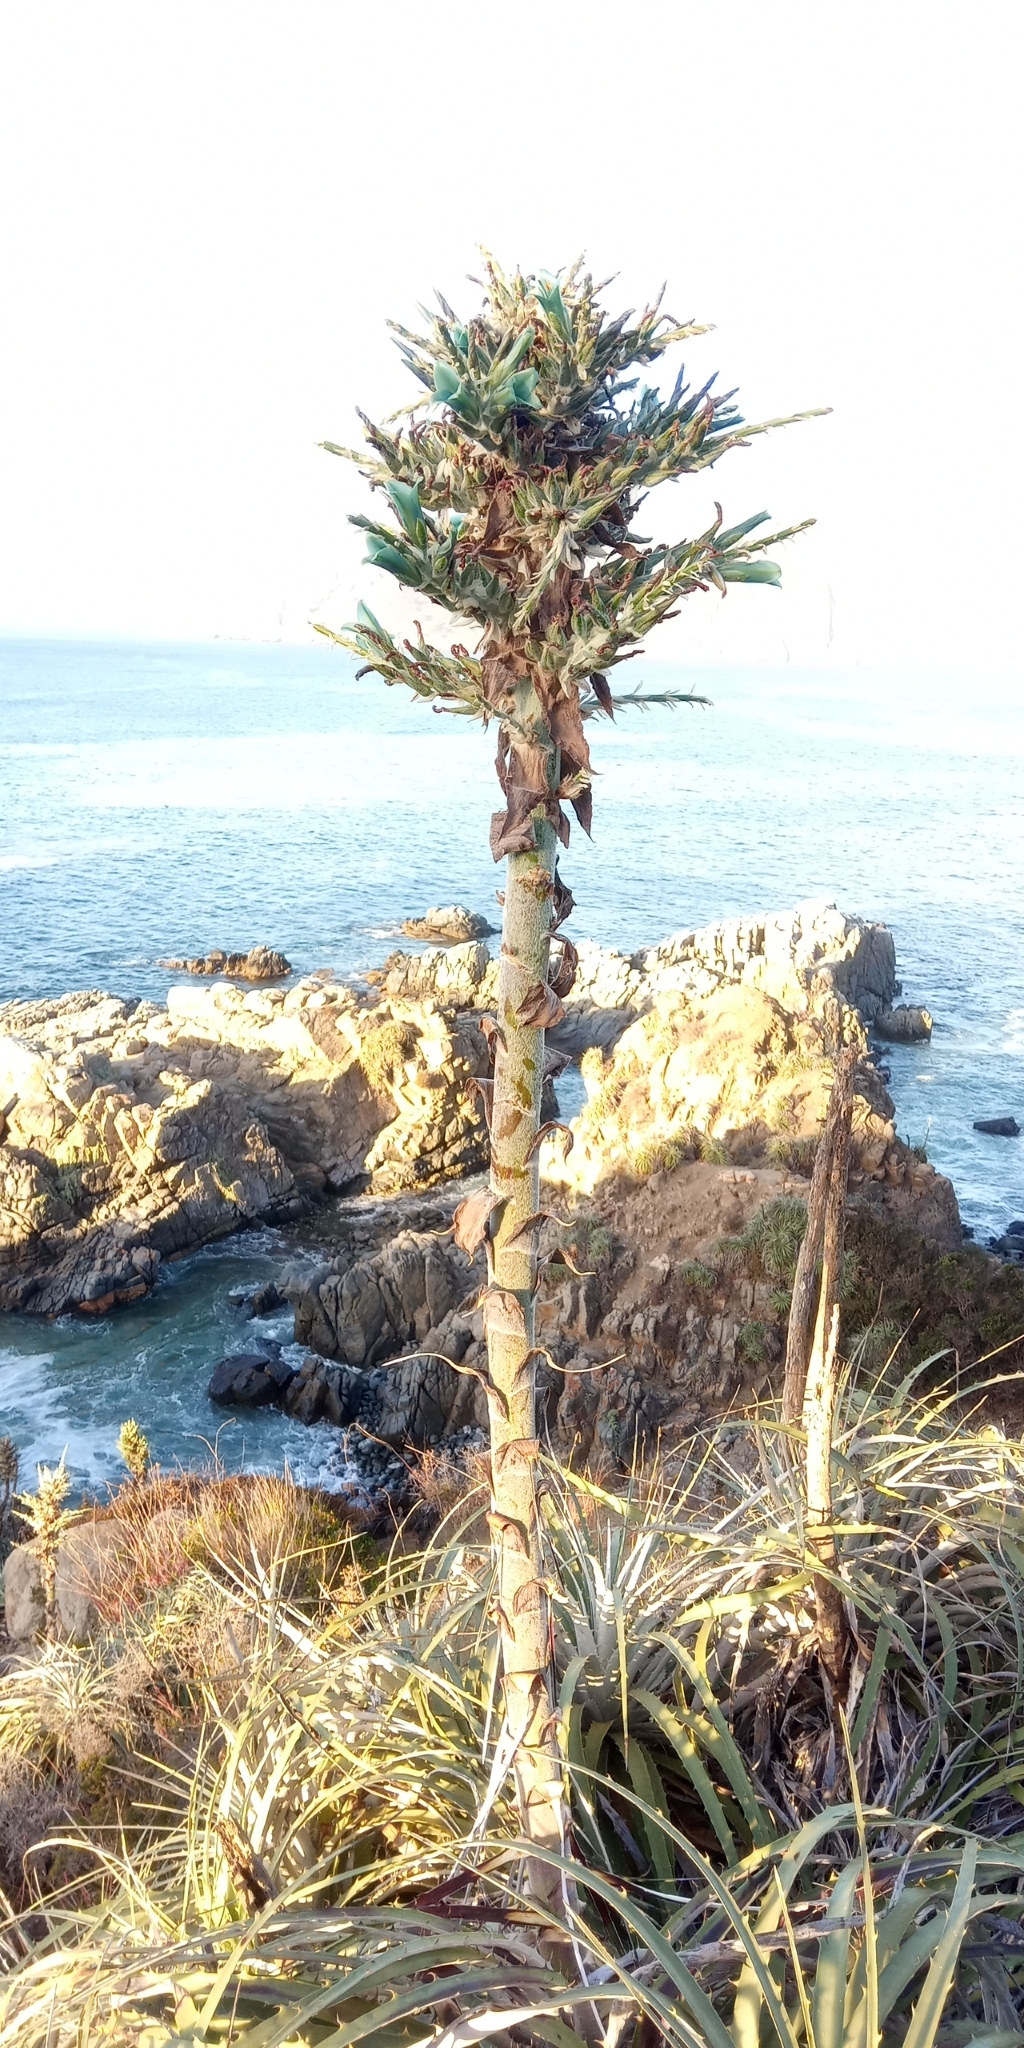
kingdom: Plantae
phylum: Tracheophyta
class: Liliopsida
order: Poales
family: Bromeliaceae
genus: Puya
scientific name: Puya alpestris
